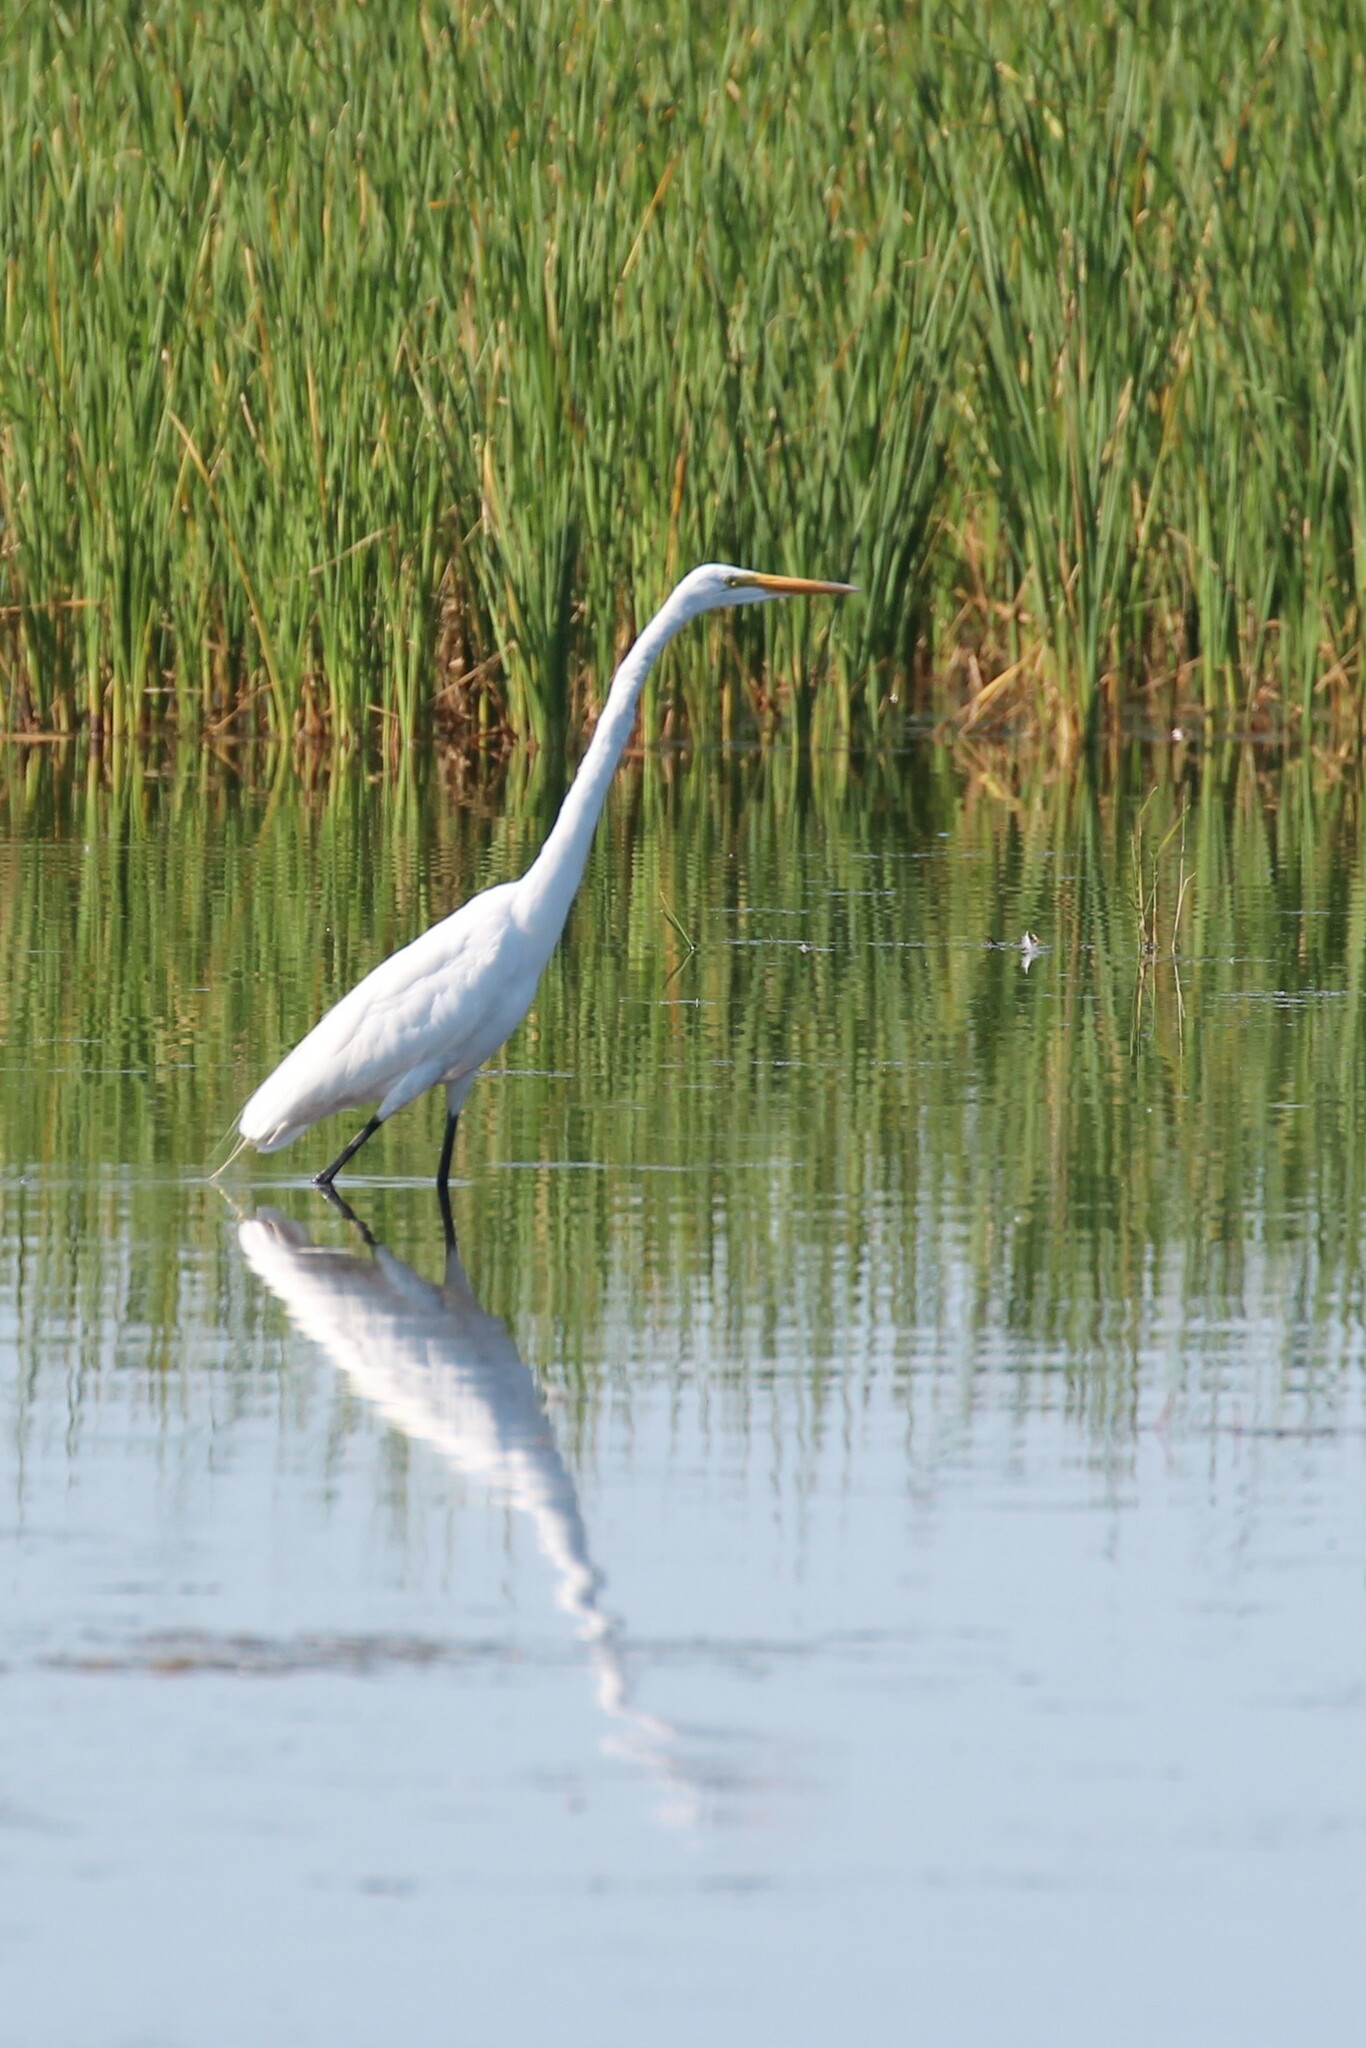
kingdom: Animalia
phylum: Chordata
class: Aves
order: Pelecaniformes
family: Ardeidae
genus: Ardea
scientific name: Ardea alba
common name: Great egret
